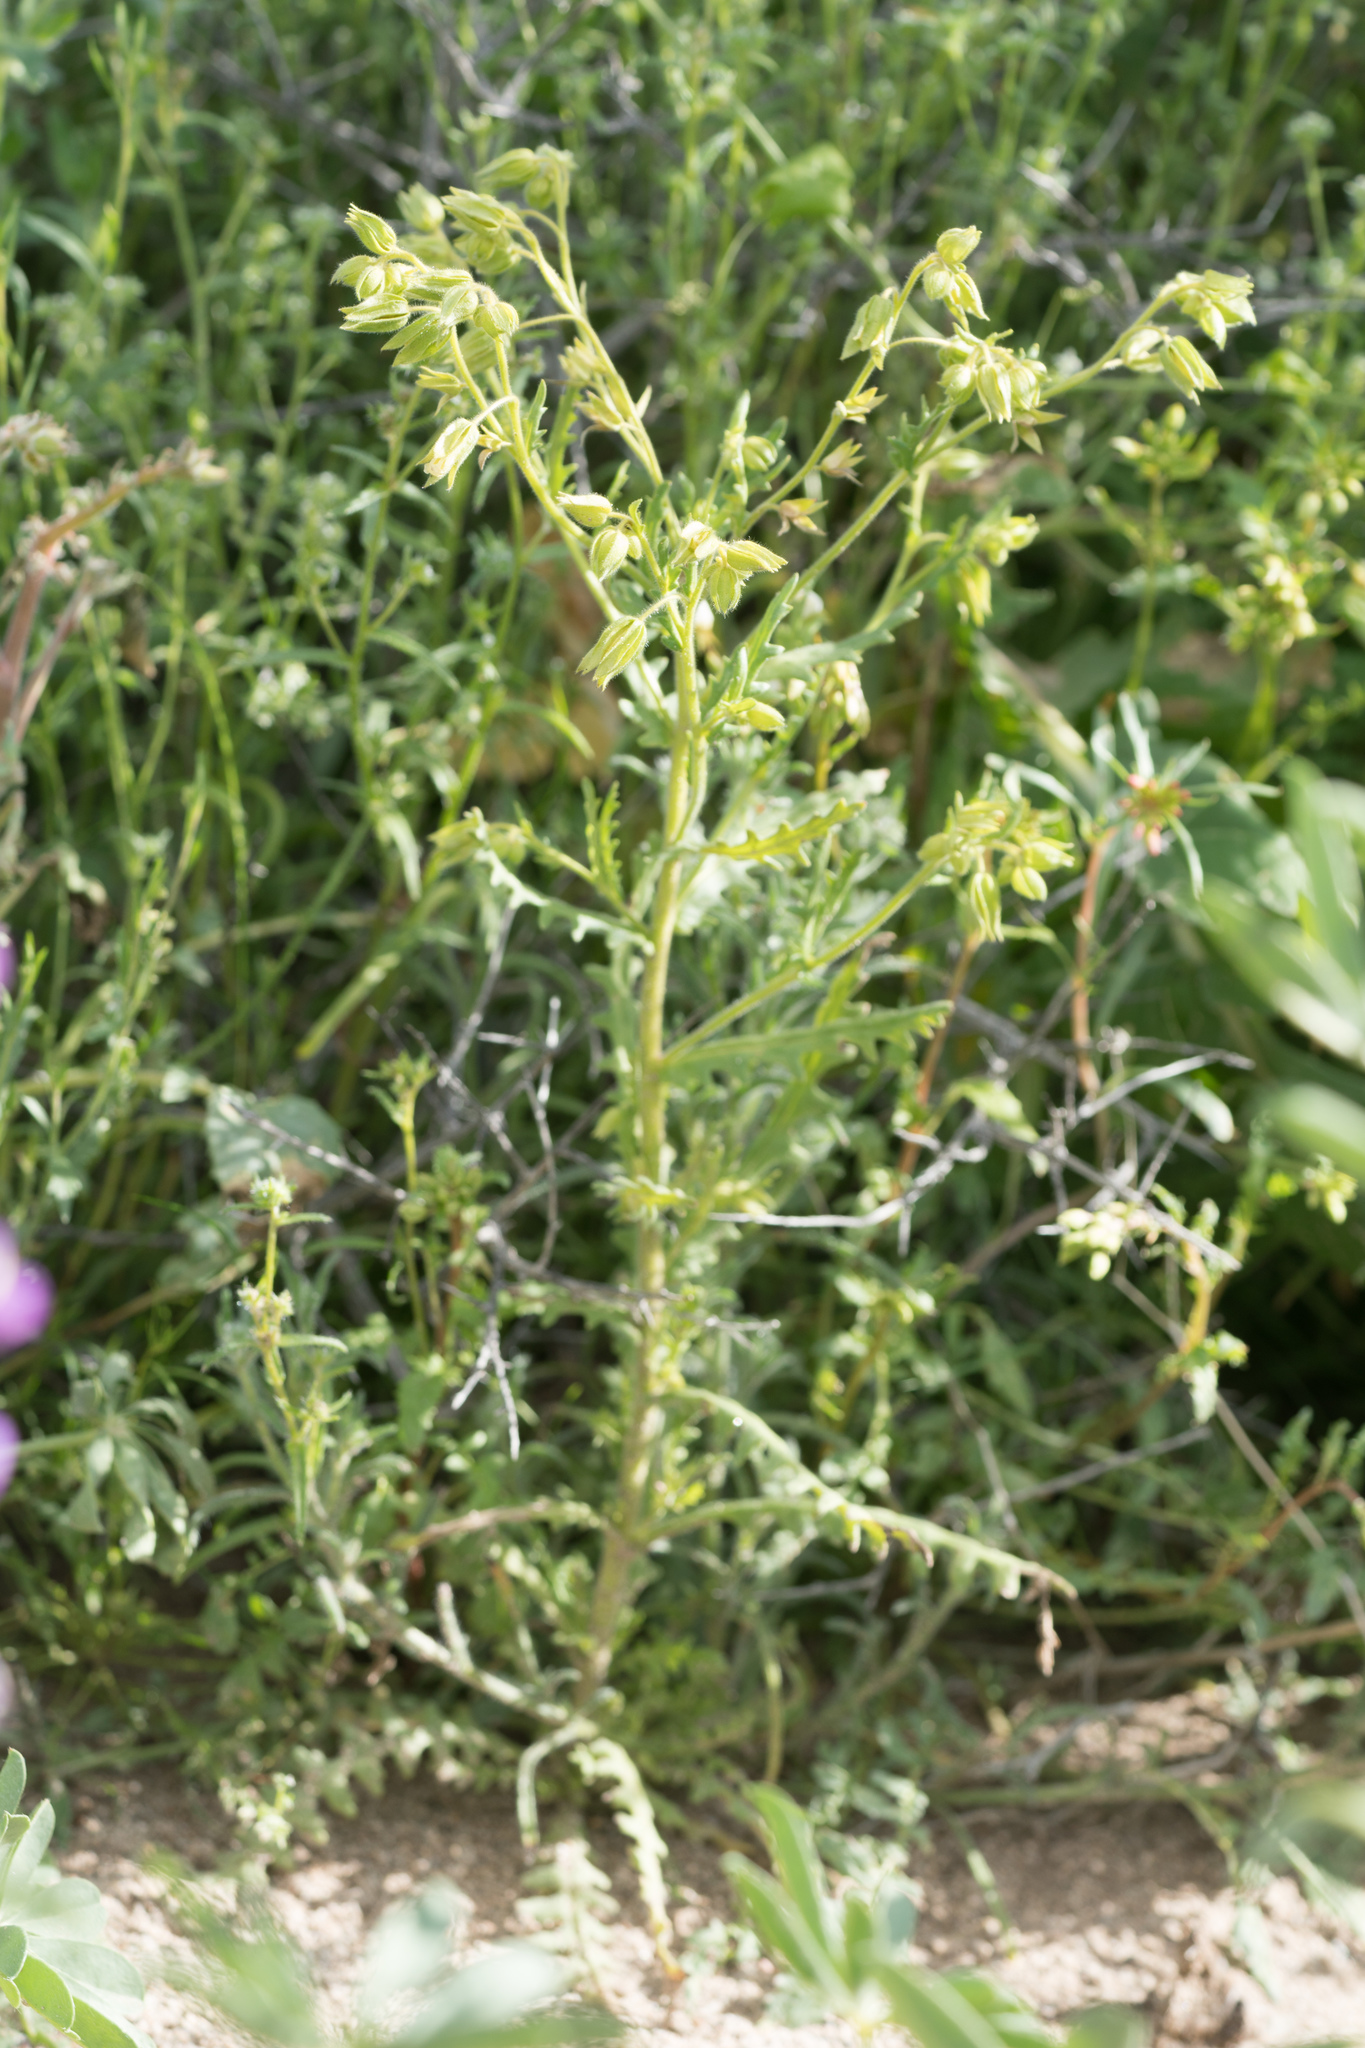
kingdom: Plantae
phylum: Tracheophyta
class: Magnoliopsida
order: Boraginales
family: Hydrophyllaceae
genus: Emmenanthe
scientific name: Emmenanthe penduliflora
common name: Whispering-bells
